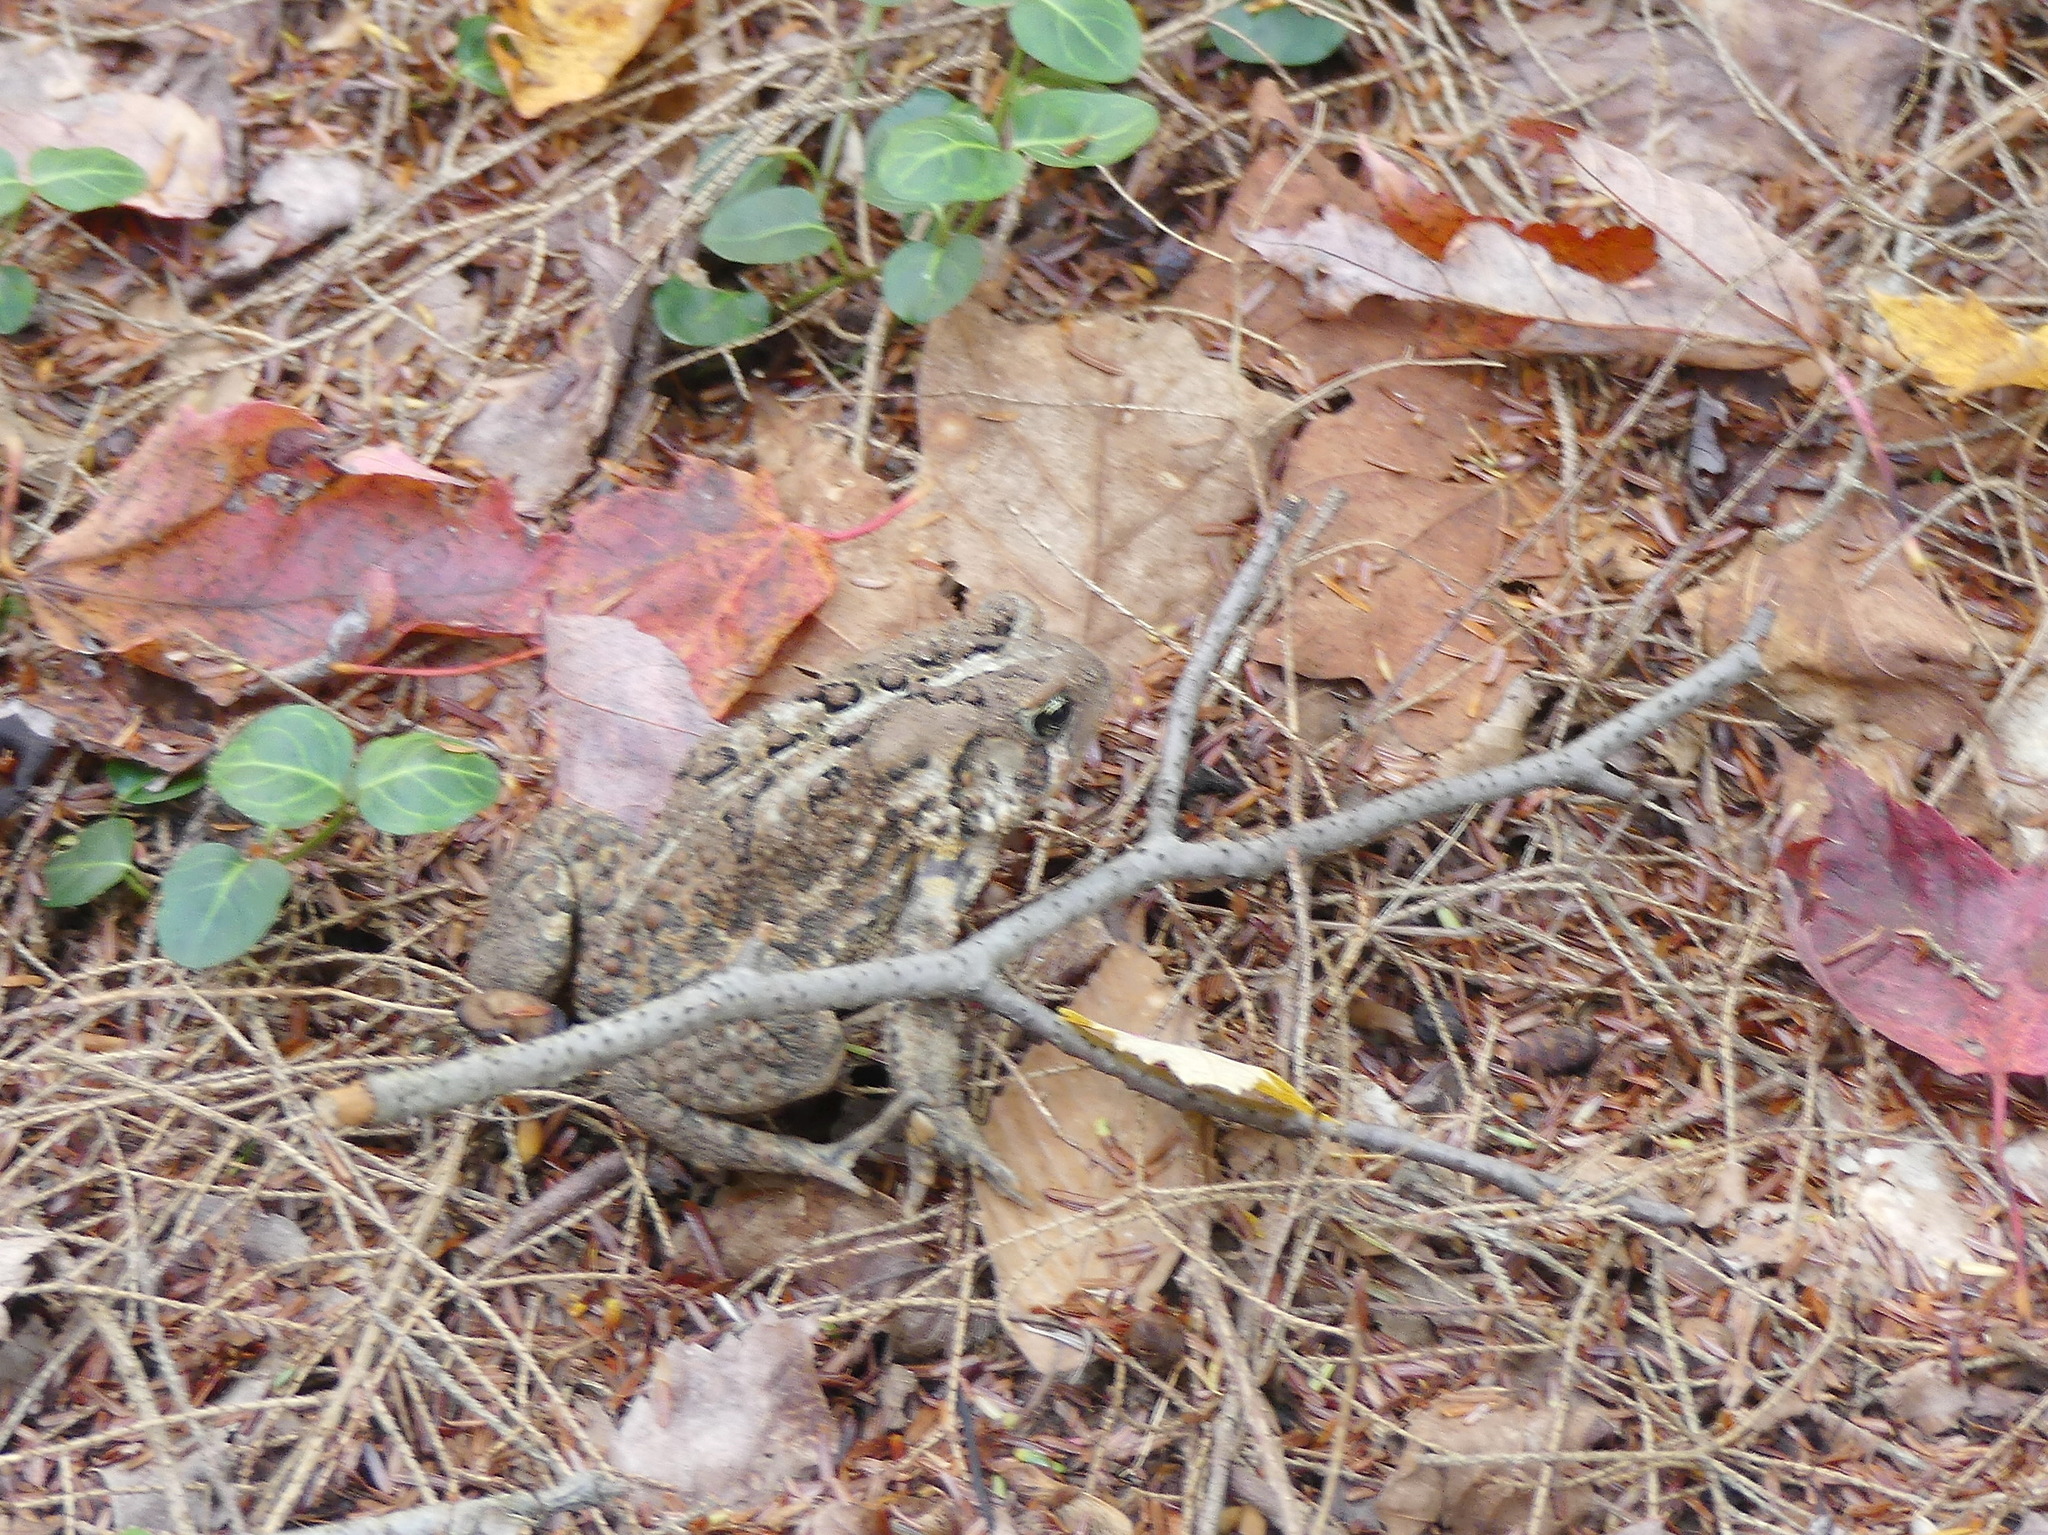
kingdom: Animalia
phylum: Chordata
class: Amphibia
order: Anura
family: Bufonidae
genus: Anaxyrus
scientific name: Anaxyrus americanus
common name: American toad
